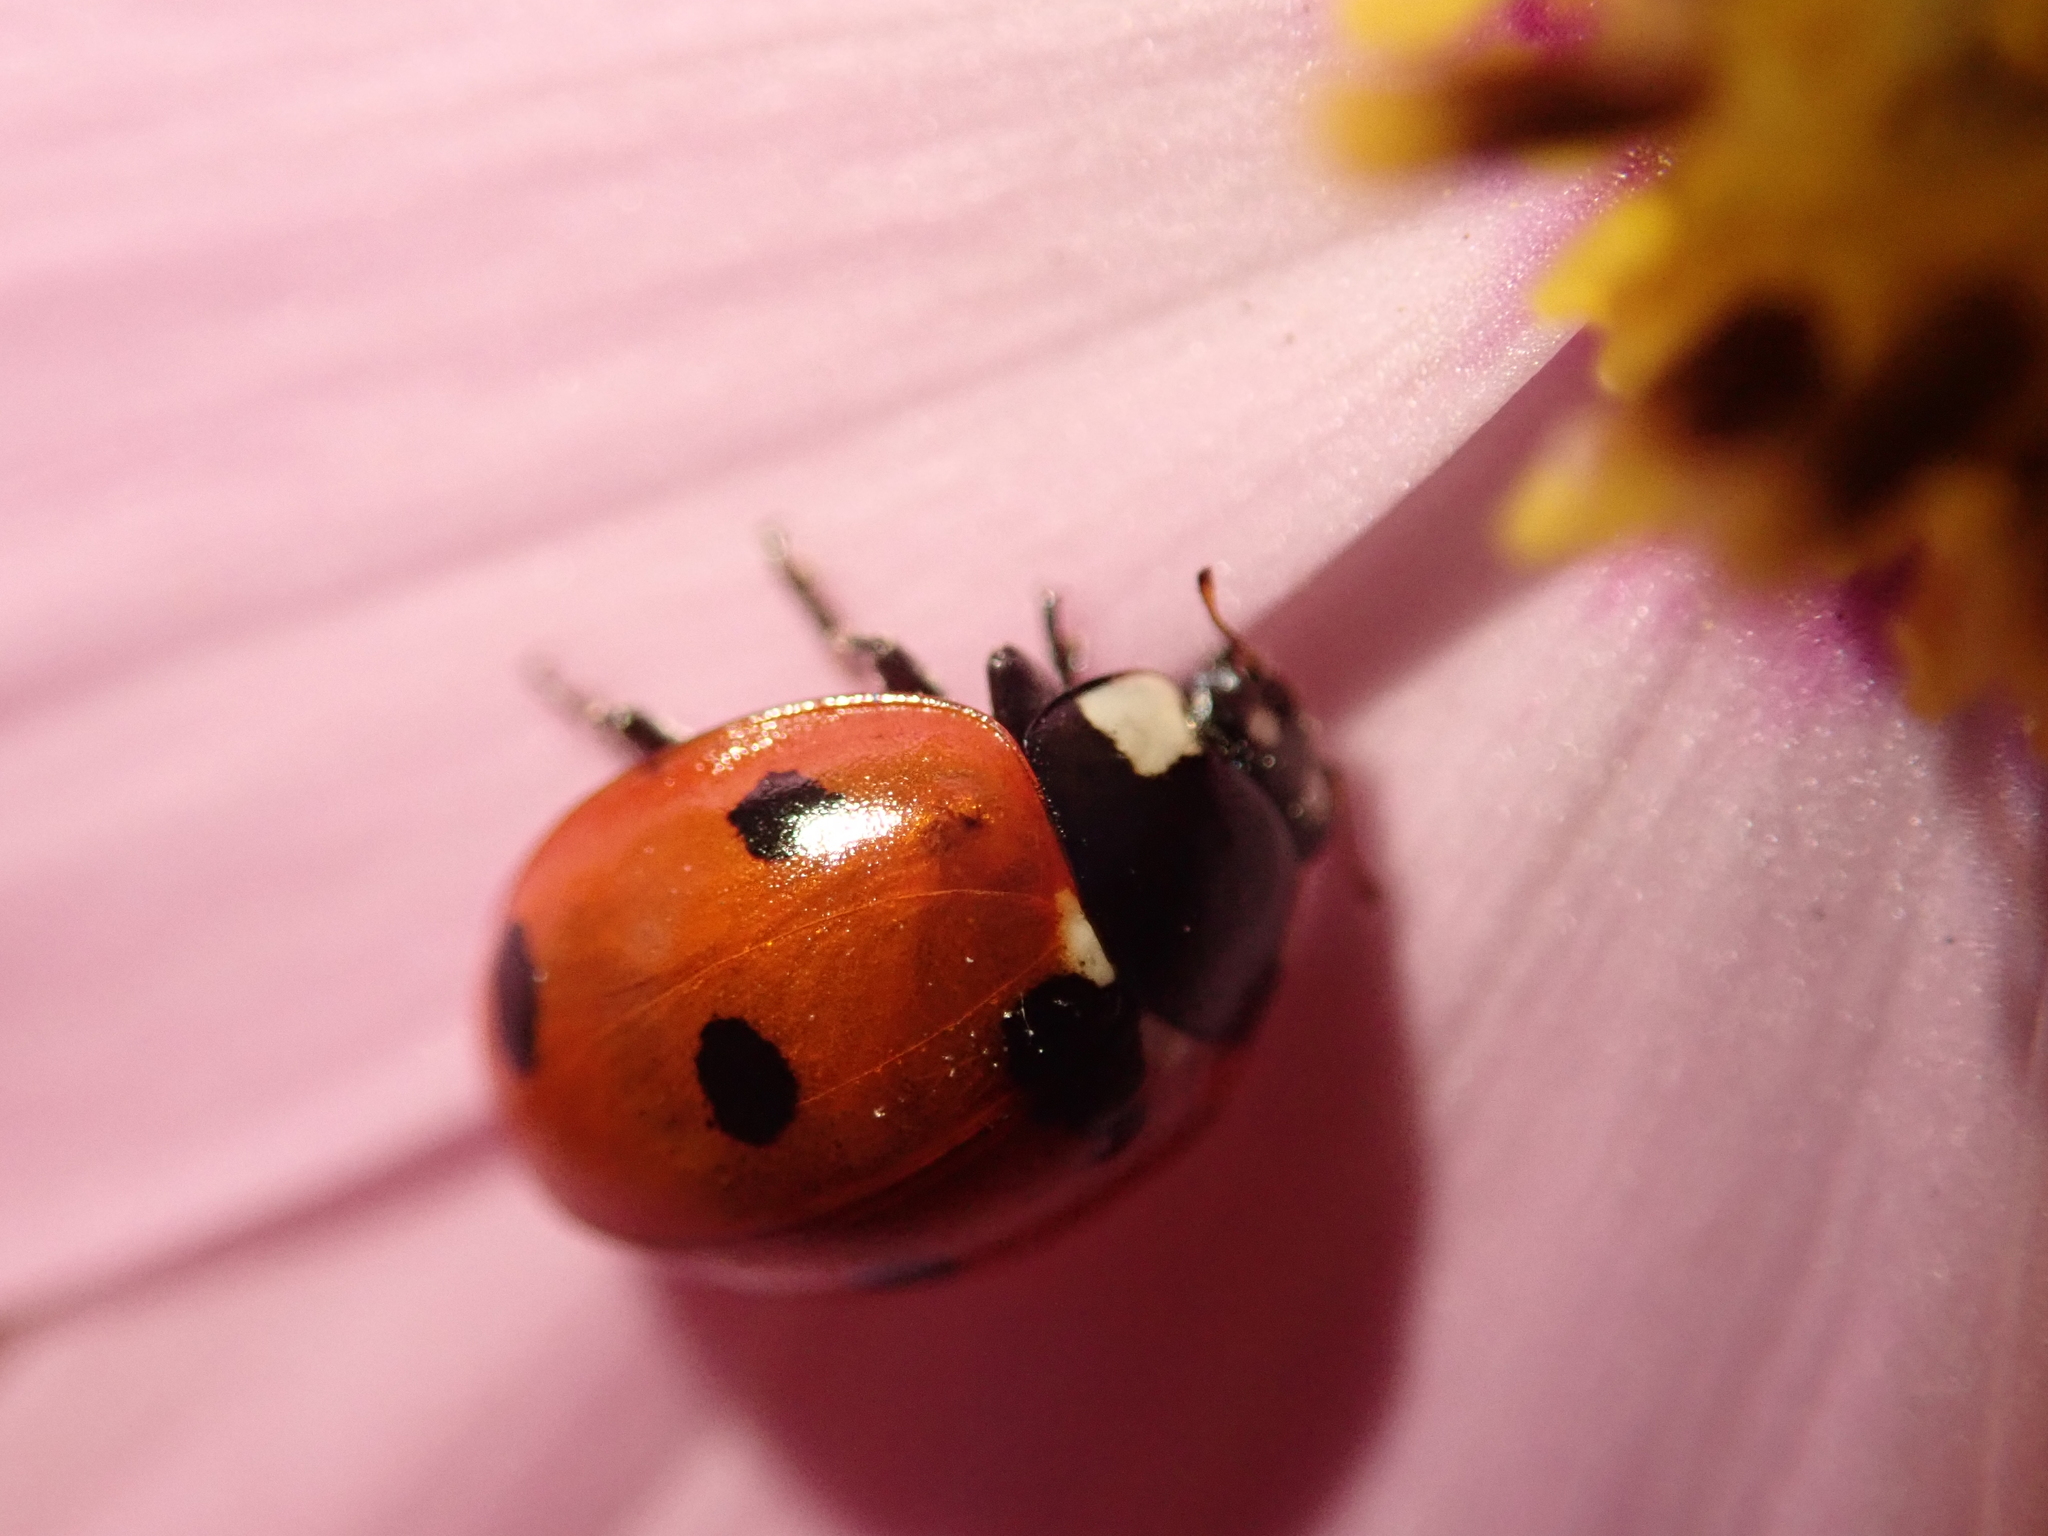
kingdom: Animalia
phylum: Arthropoda
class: Insecta
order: Coleoptera
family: Coccinellidae
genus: Coccinella
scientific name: Coccinella septempunctata
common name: Sevenspotted lady beetle
